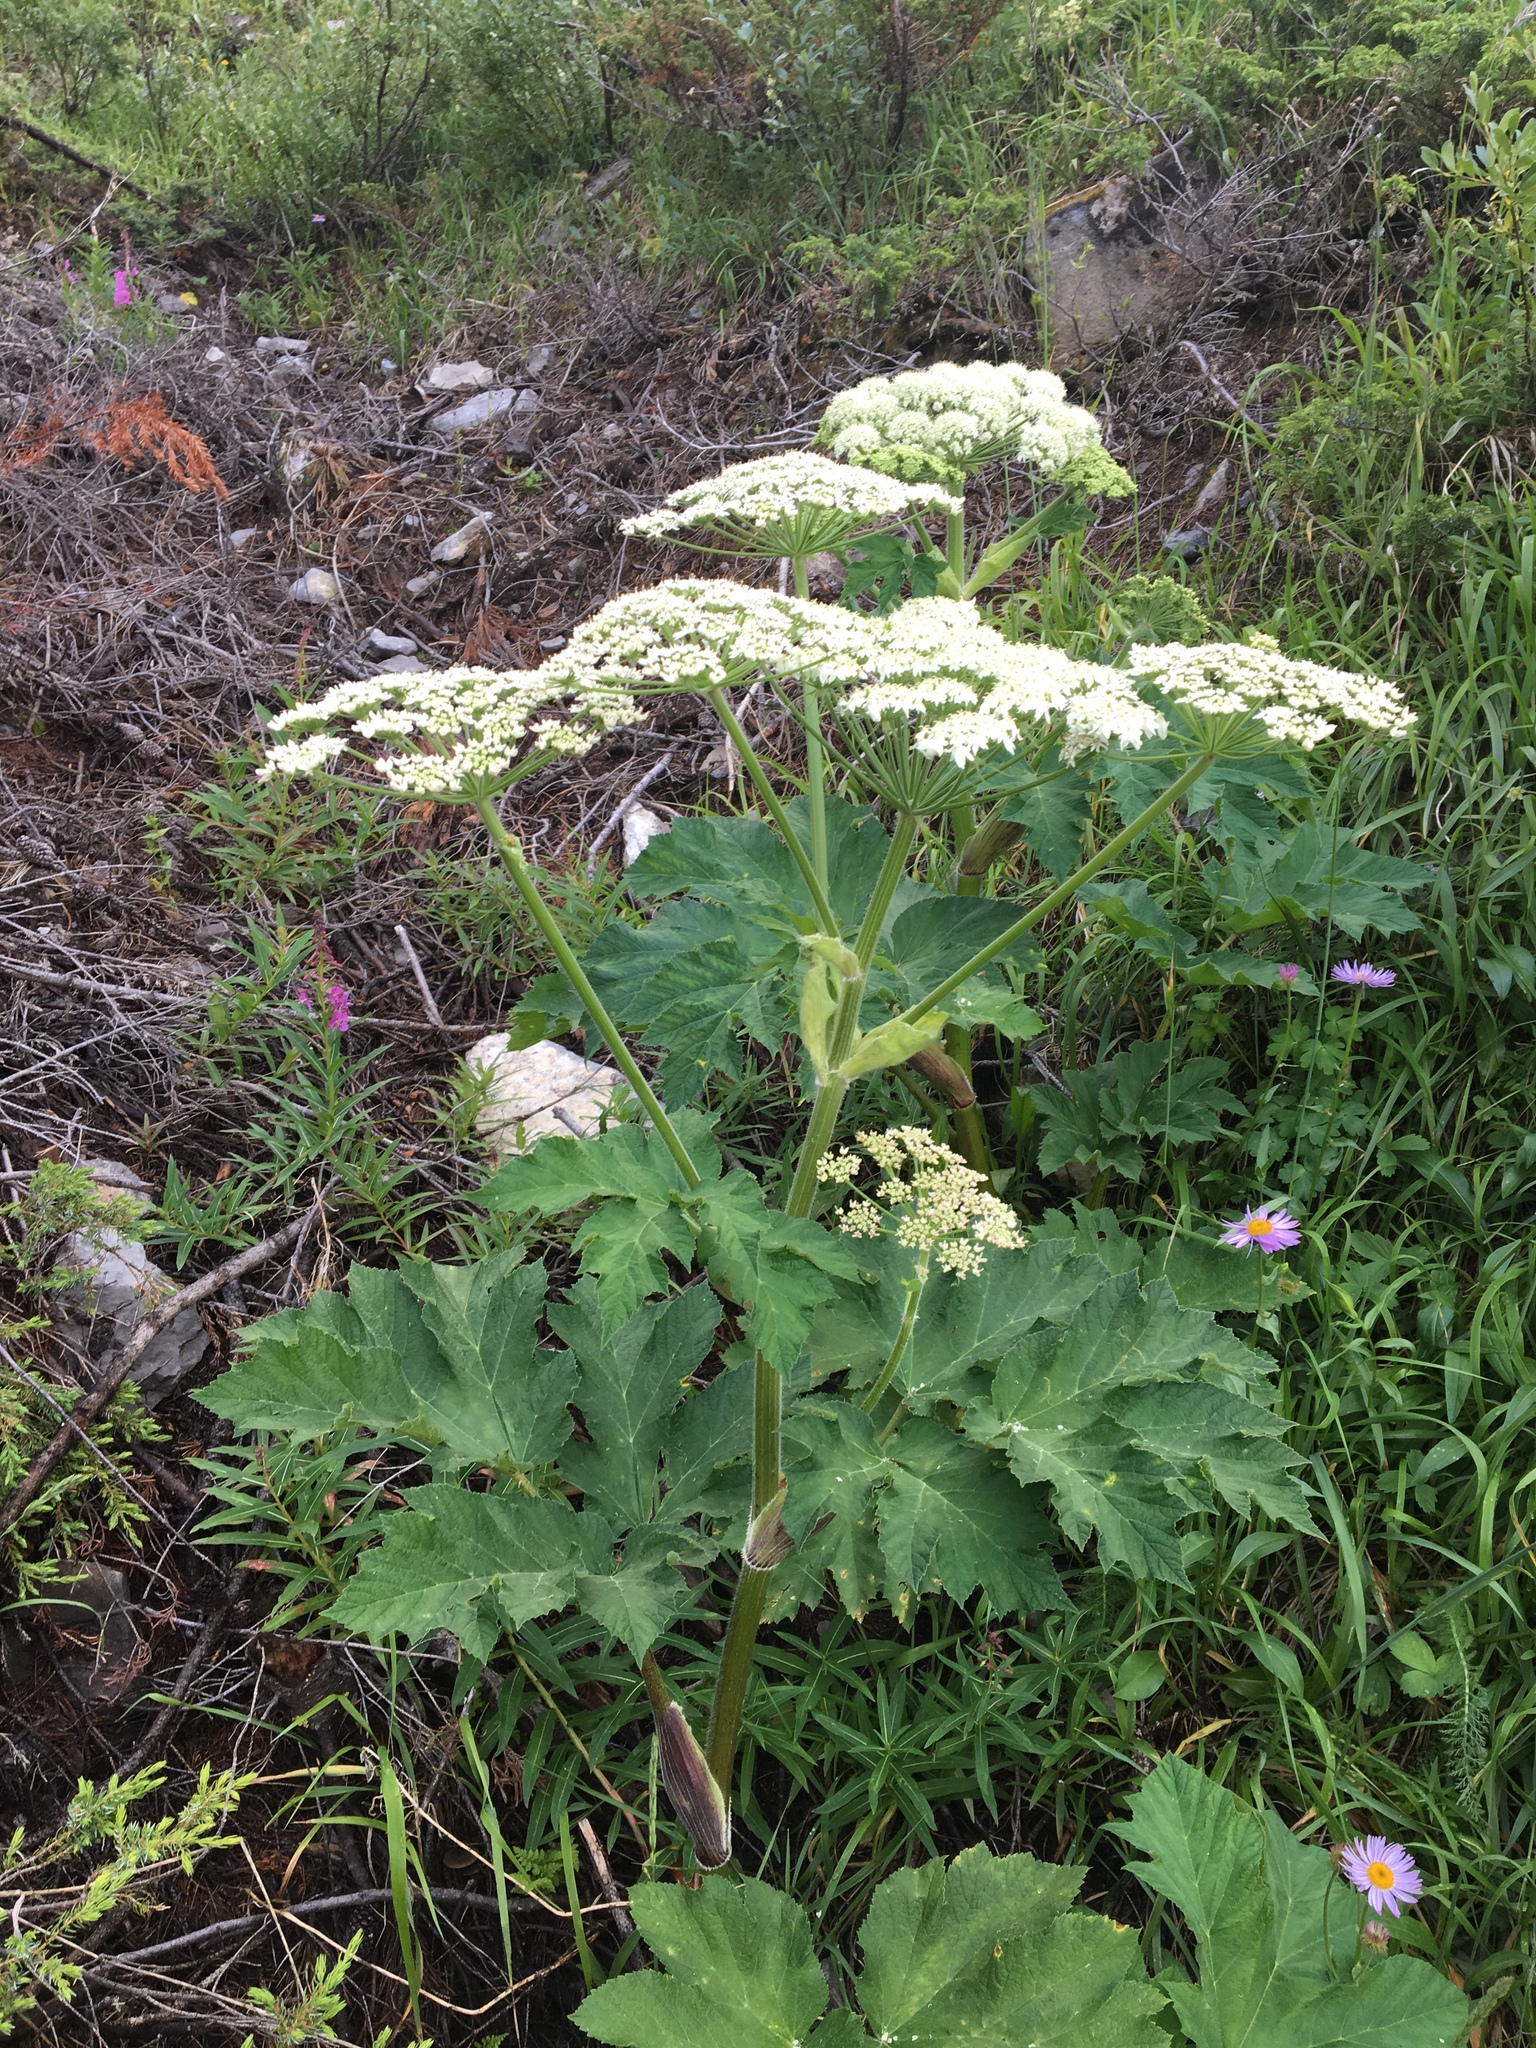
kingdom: Plantae
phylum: Tracheophyta
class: Magnoliopsida
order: Apiales
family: Apiaceae
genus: Heracleum
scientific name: Heracleum maximum
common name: American cow parsnip
